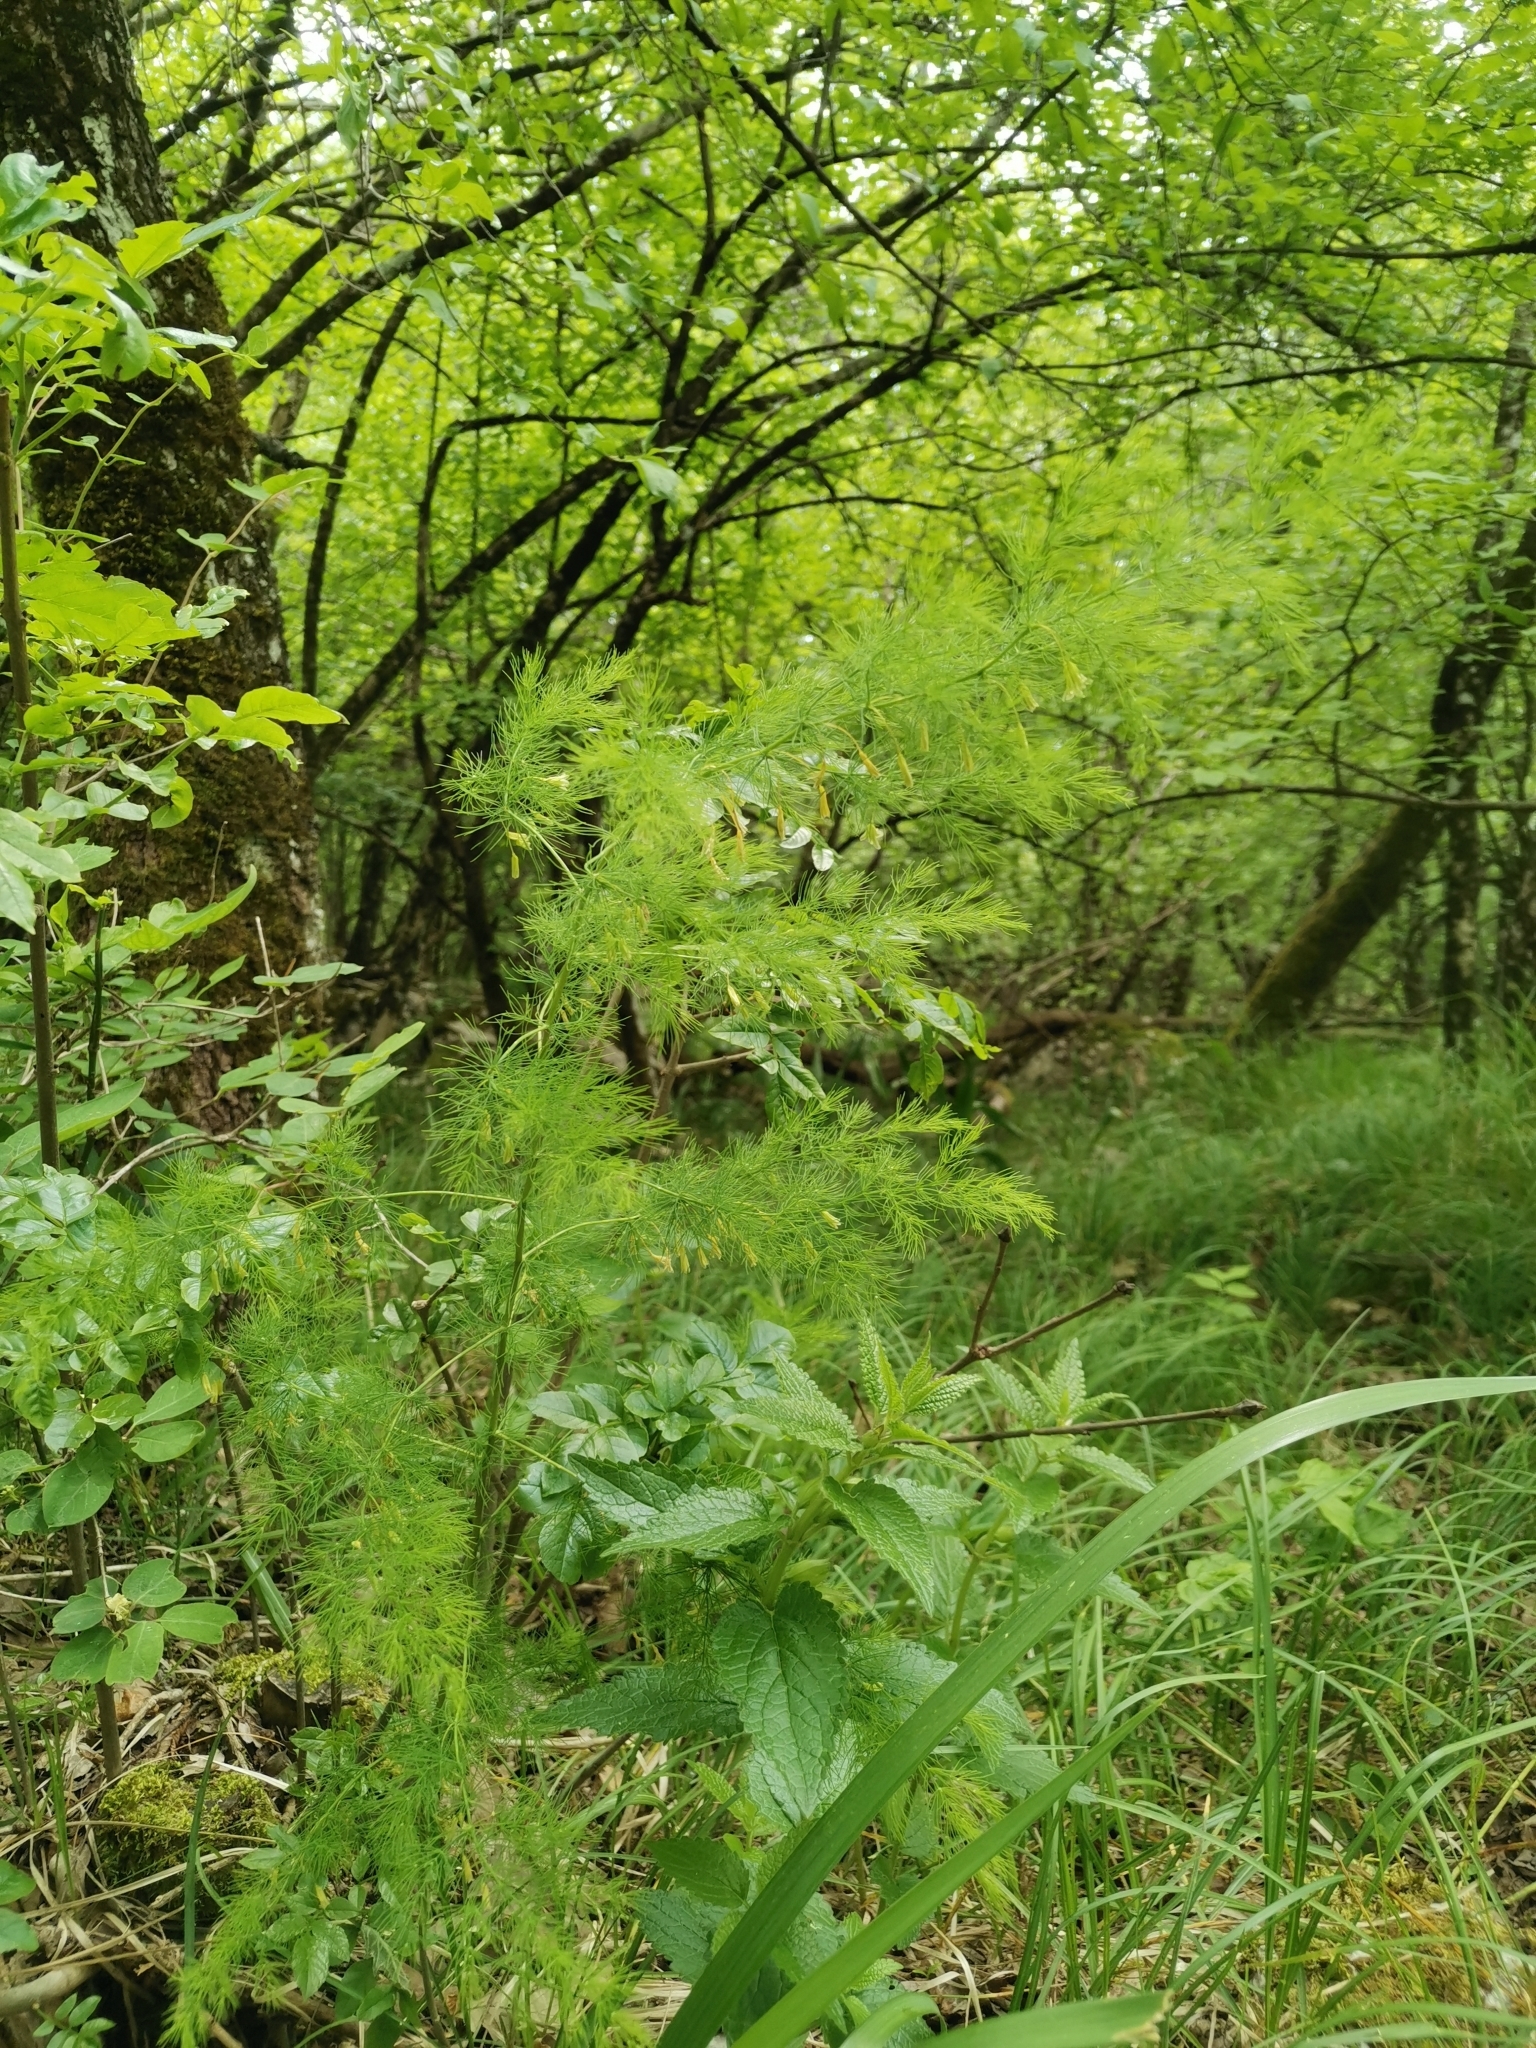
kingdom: Plantae
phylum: Tracheophyta
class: Liliopsida
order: Asparagales
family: Asparagaceae
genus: Asparagus
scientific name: Asparagus tenuifolius
